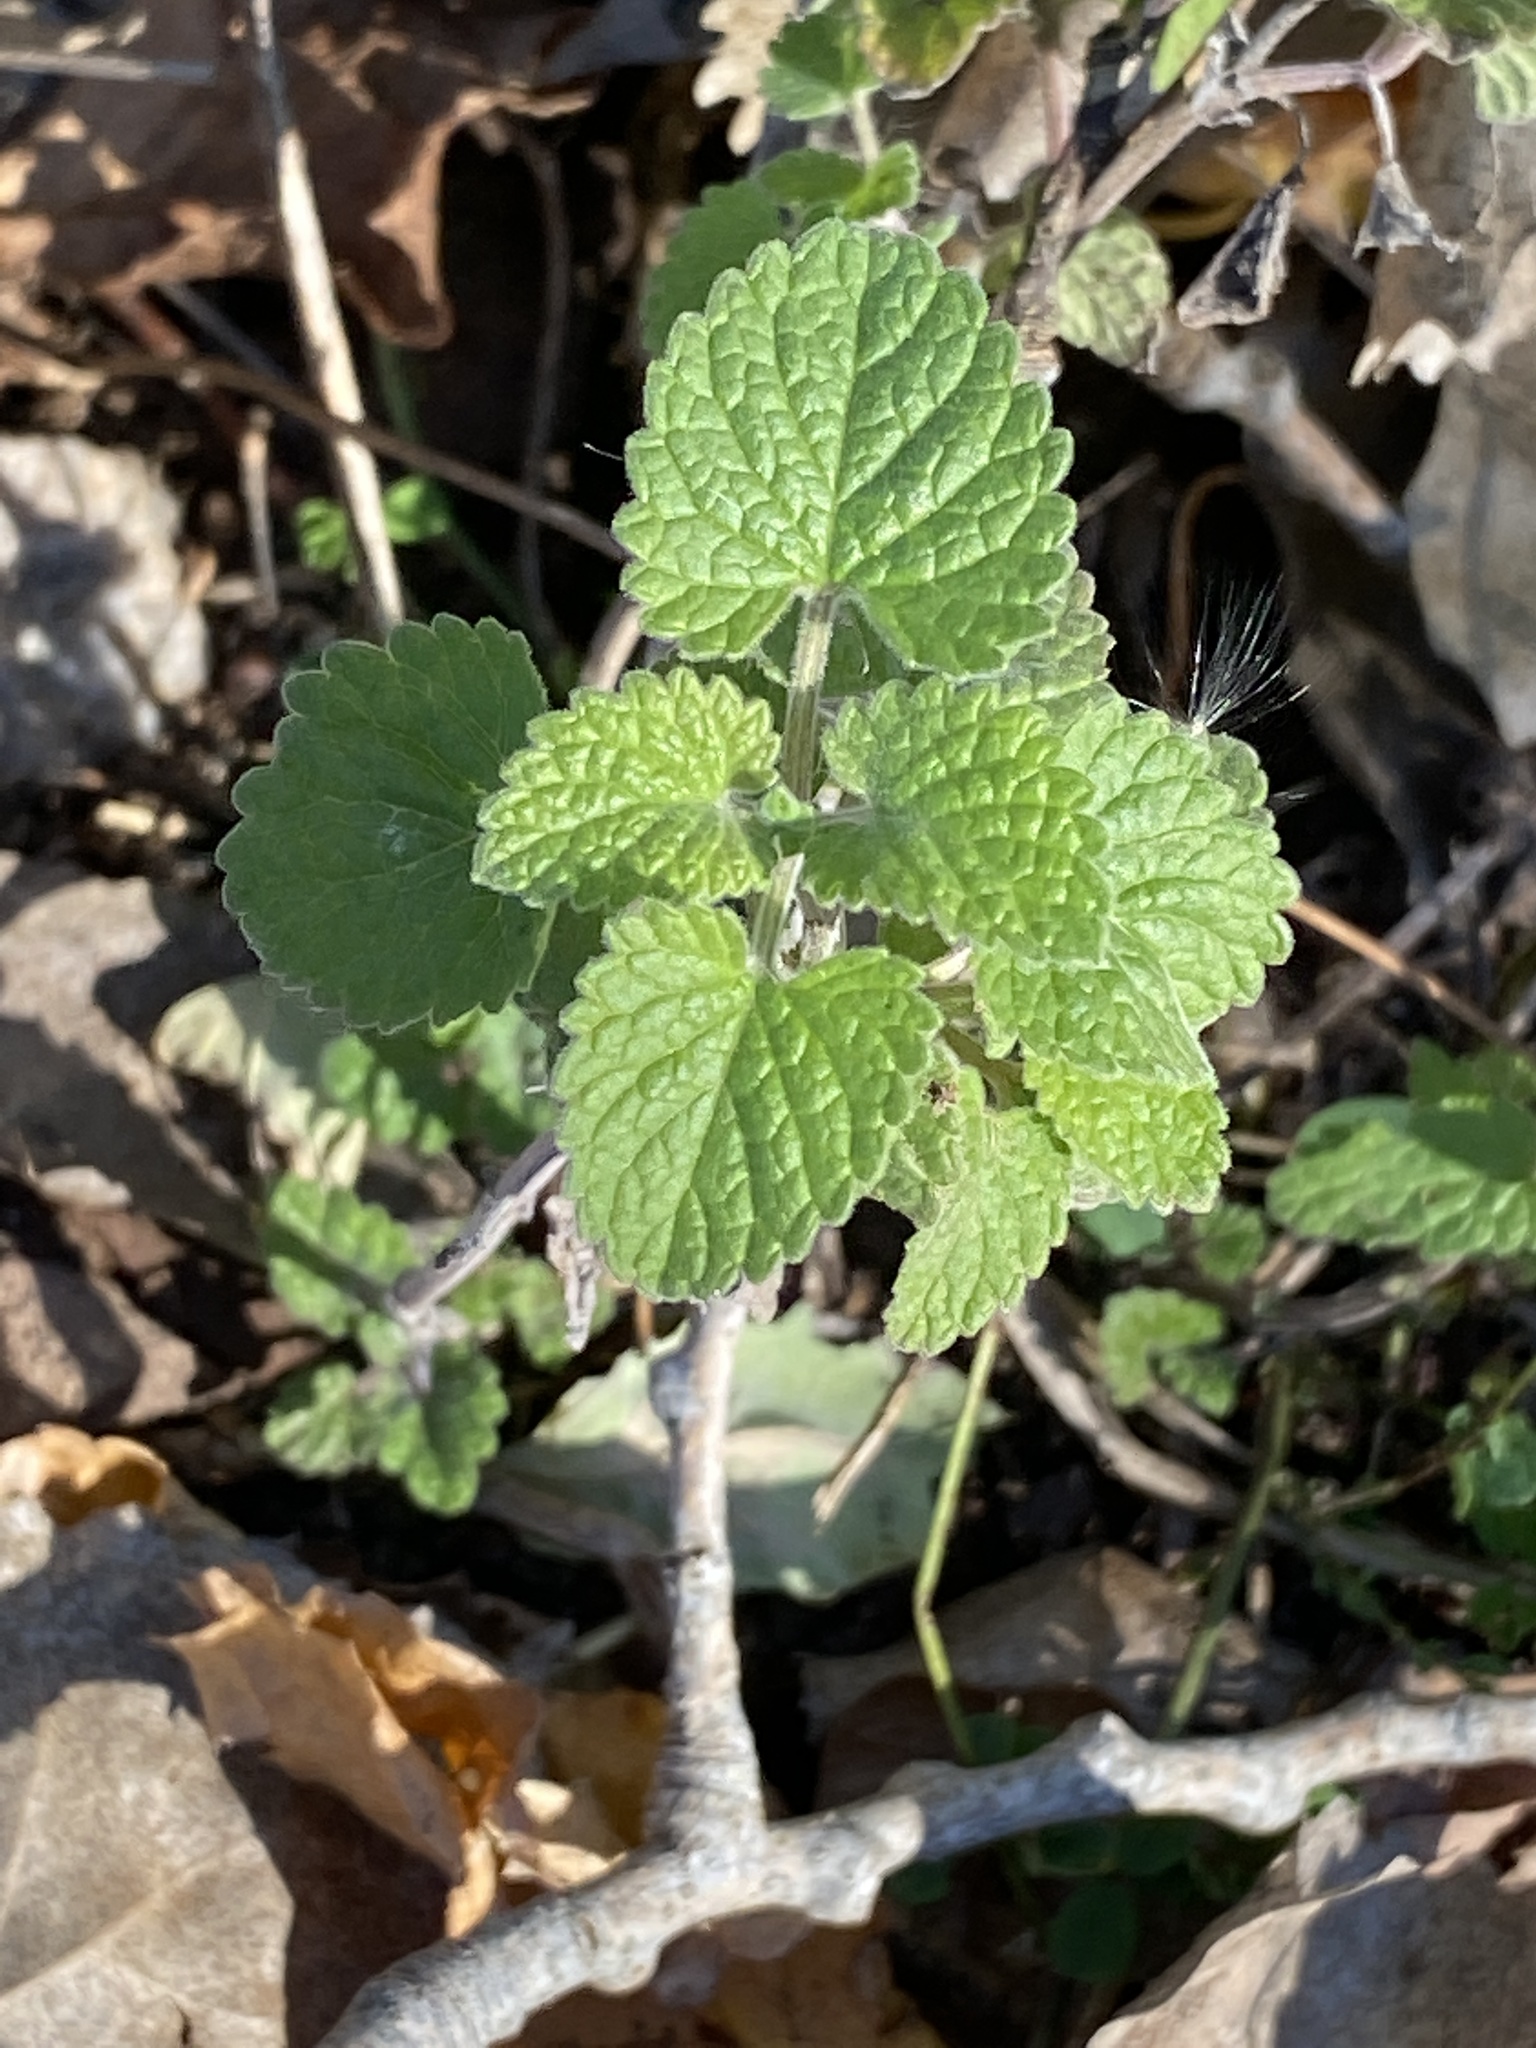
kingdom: Plantae
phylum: Tracheophyta
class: Magnoliopsida
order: Lamiales
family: Lamiaceae
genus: Nepeta
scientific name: Nepeta cataria
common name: Catnip
